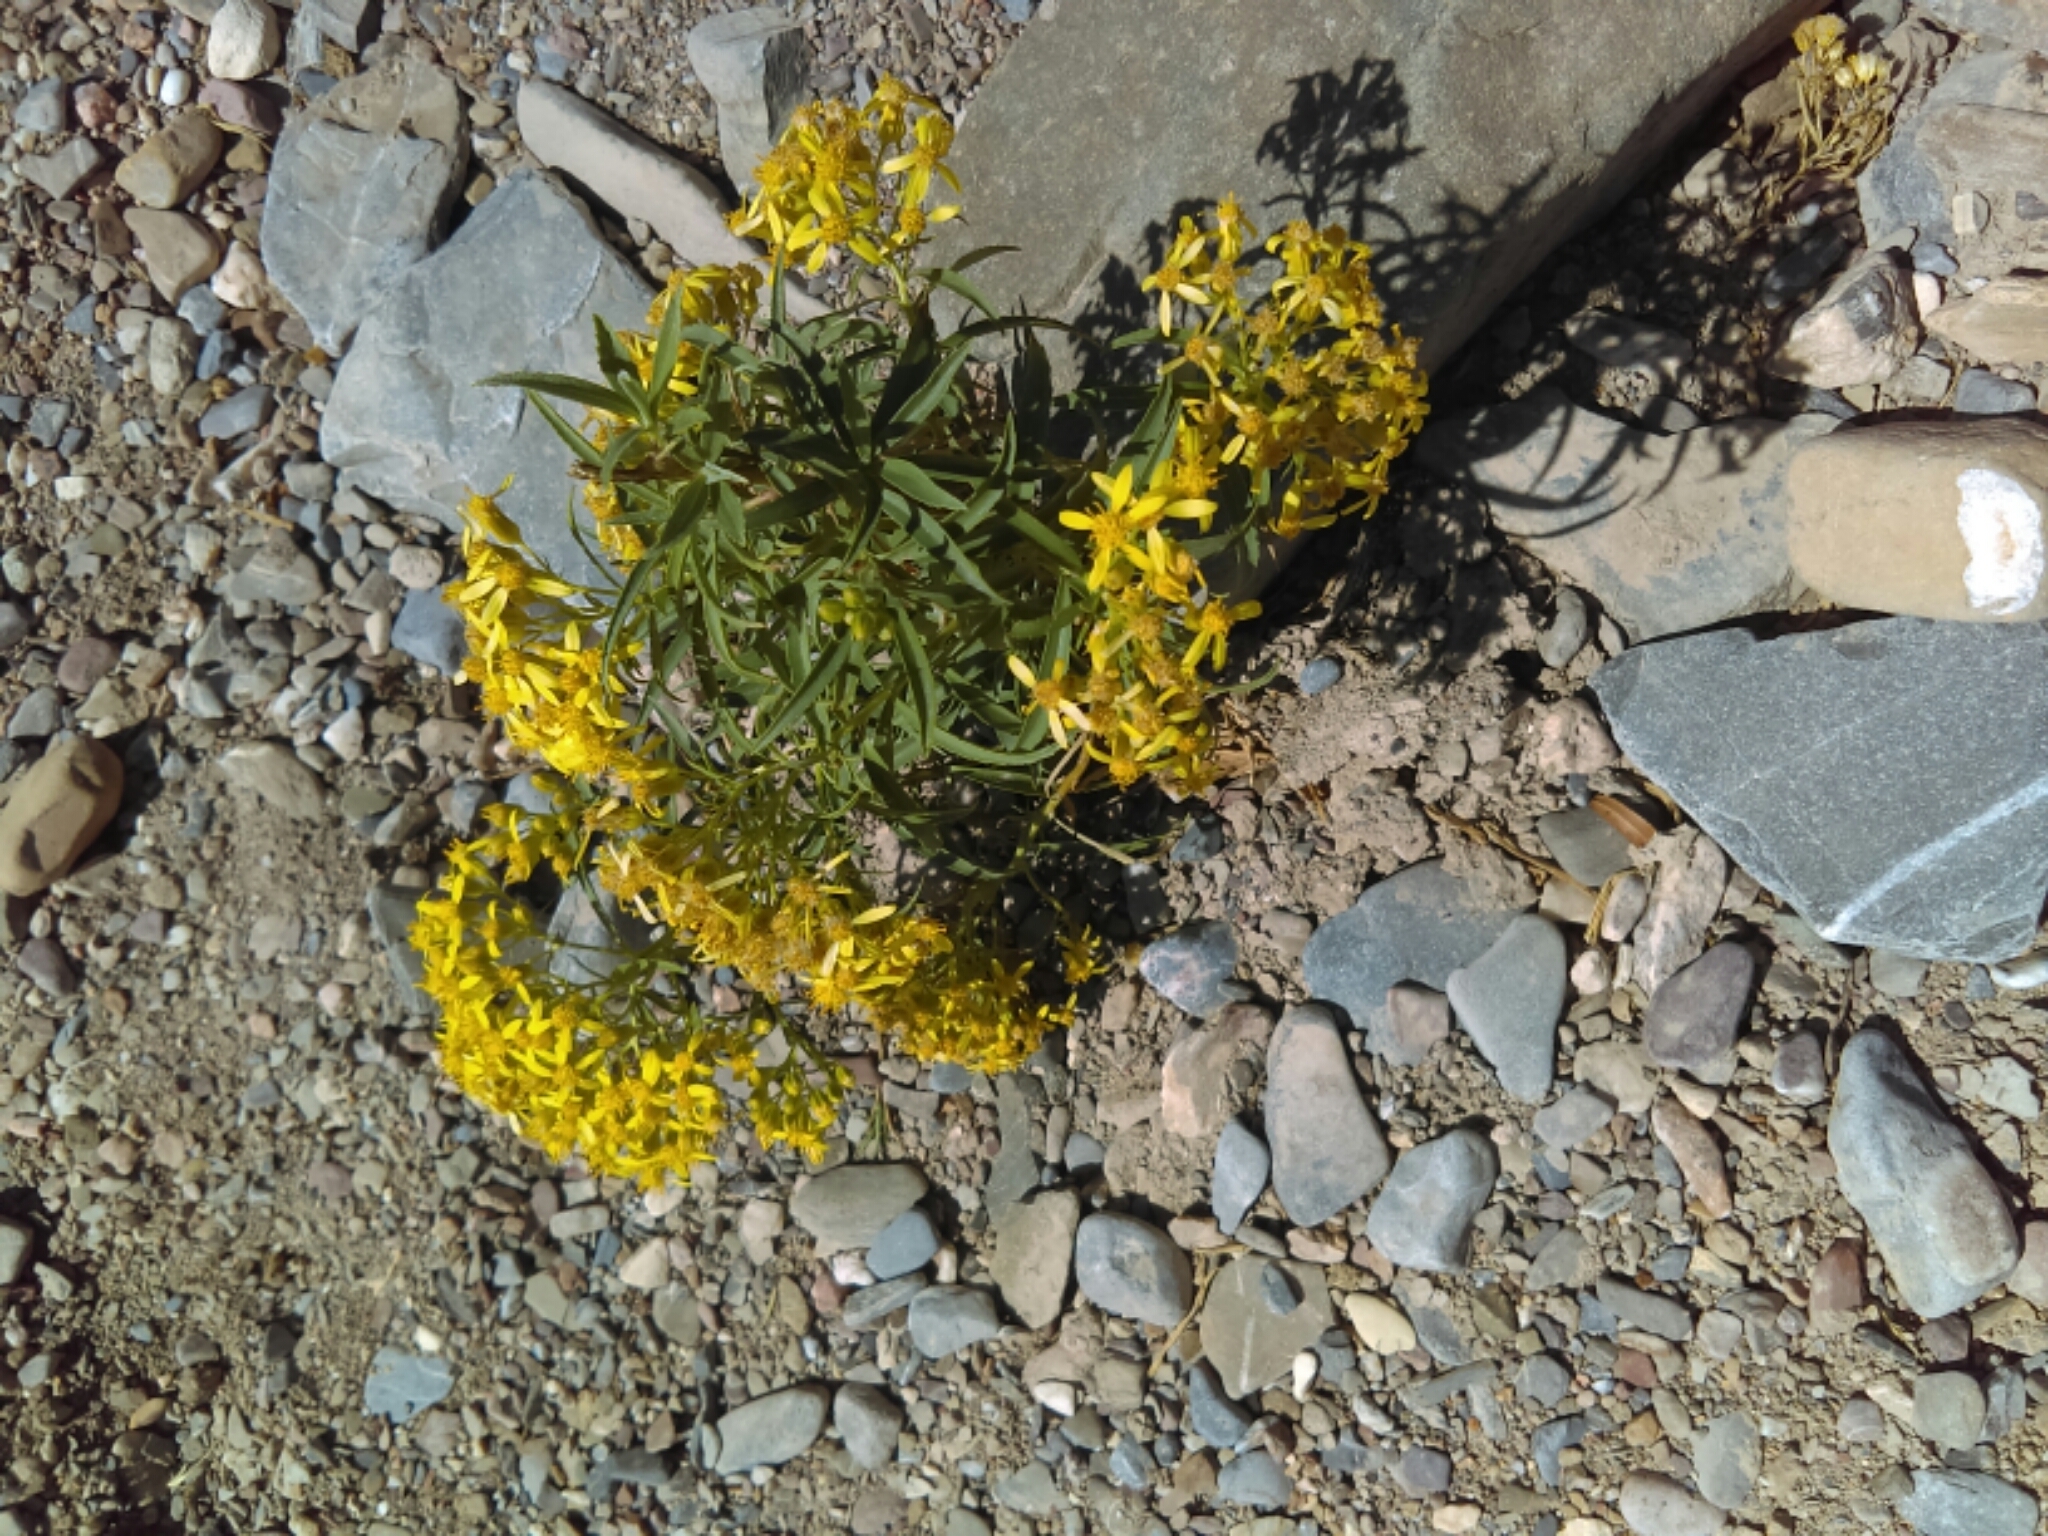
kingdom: Plantae
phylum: Tracheophyta
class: Magnoliopsida
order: Asterales
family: Asteraceae
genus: Barkleyanthus
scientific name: Barkleyanthus salicifolius
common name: Willow ragwort
